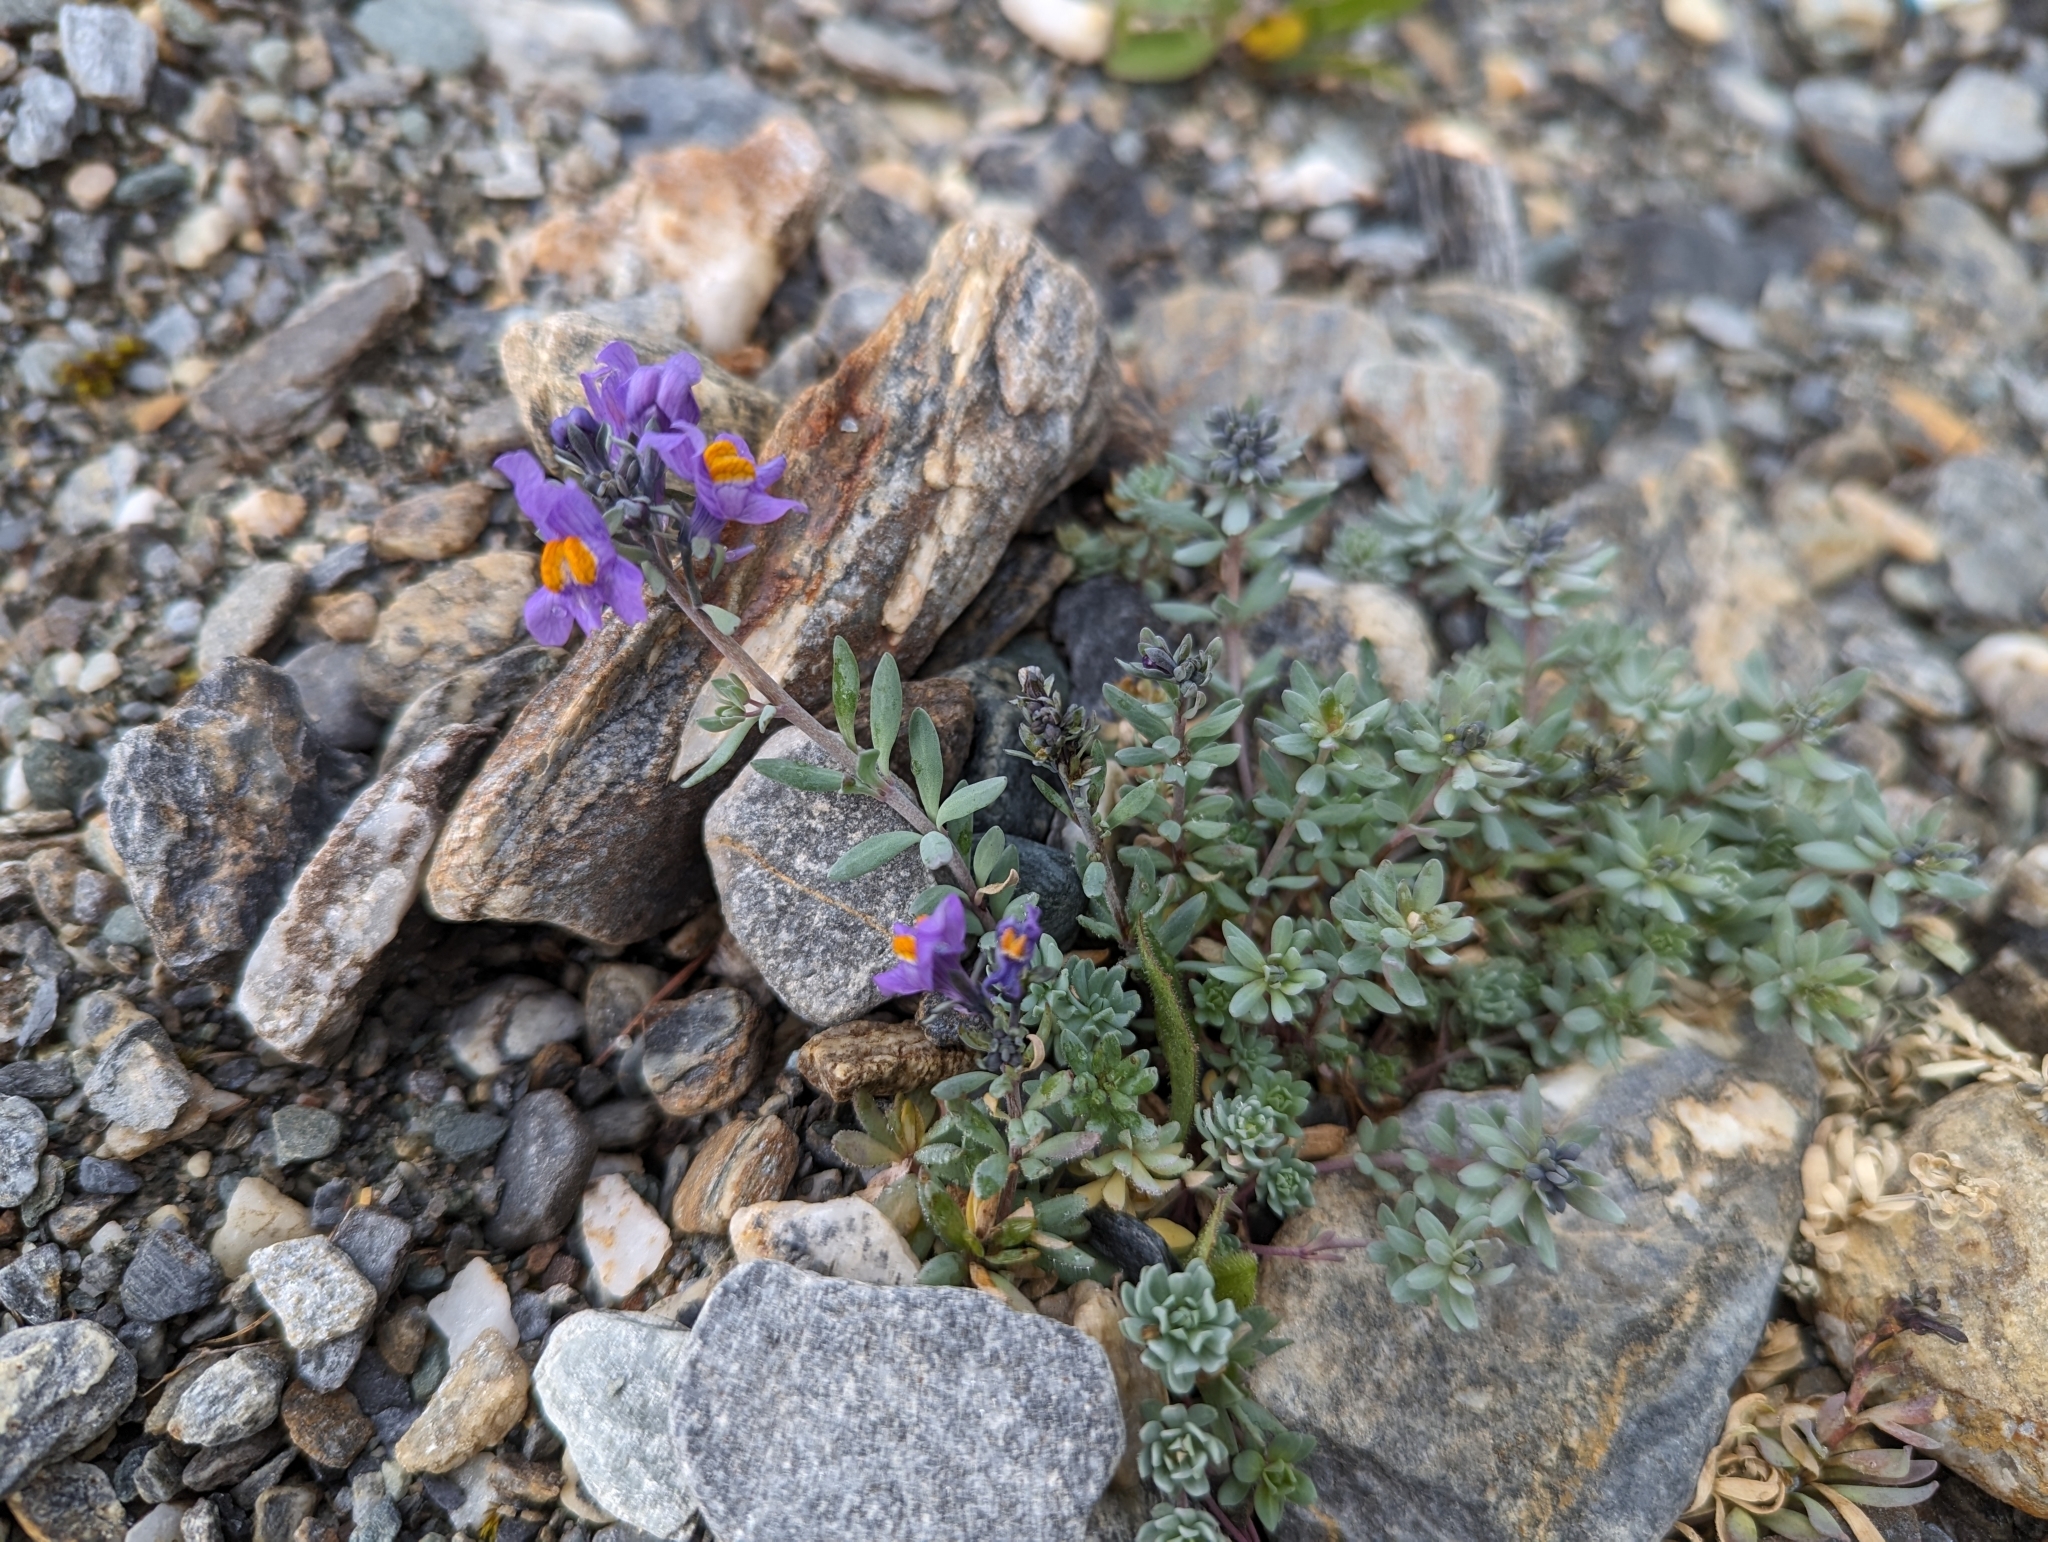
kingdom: Plantae
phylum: Tracheophyta
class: Magnoliopsida
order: Lamiales
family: Plantaginaceae
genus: Linaria
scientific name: Linaria alpina
